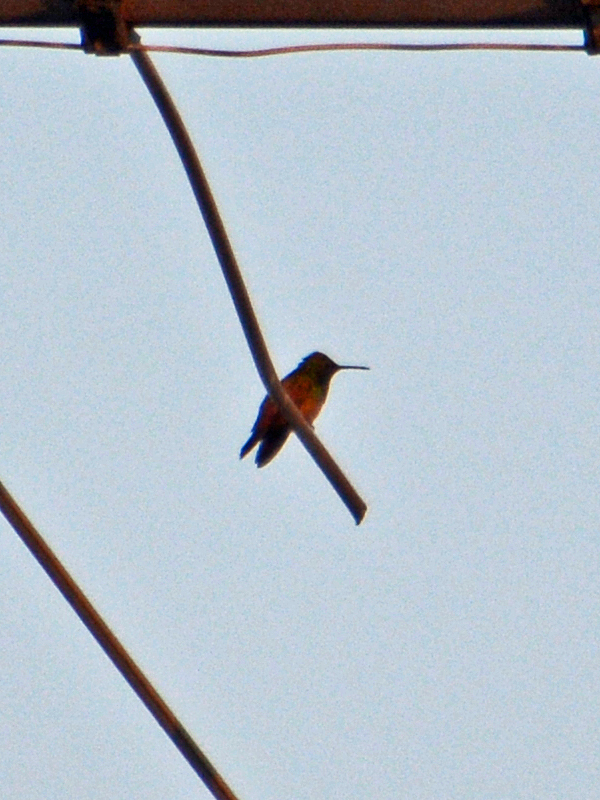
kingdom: Animalia
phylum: Chordata
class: Aves
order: Apodiformes
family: Trochilidae
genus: Saucerottia
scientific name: Saucerottia beryllina
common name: Berylline hummingbird
